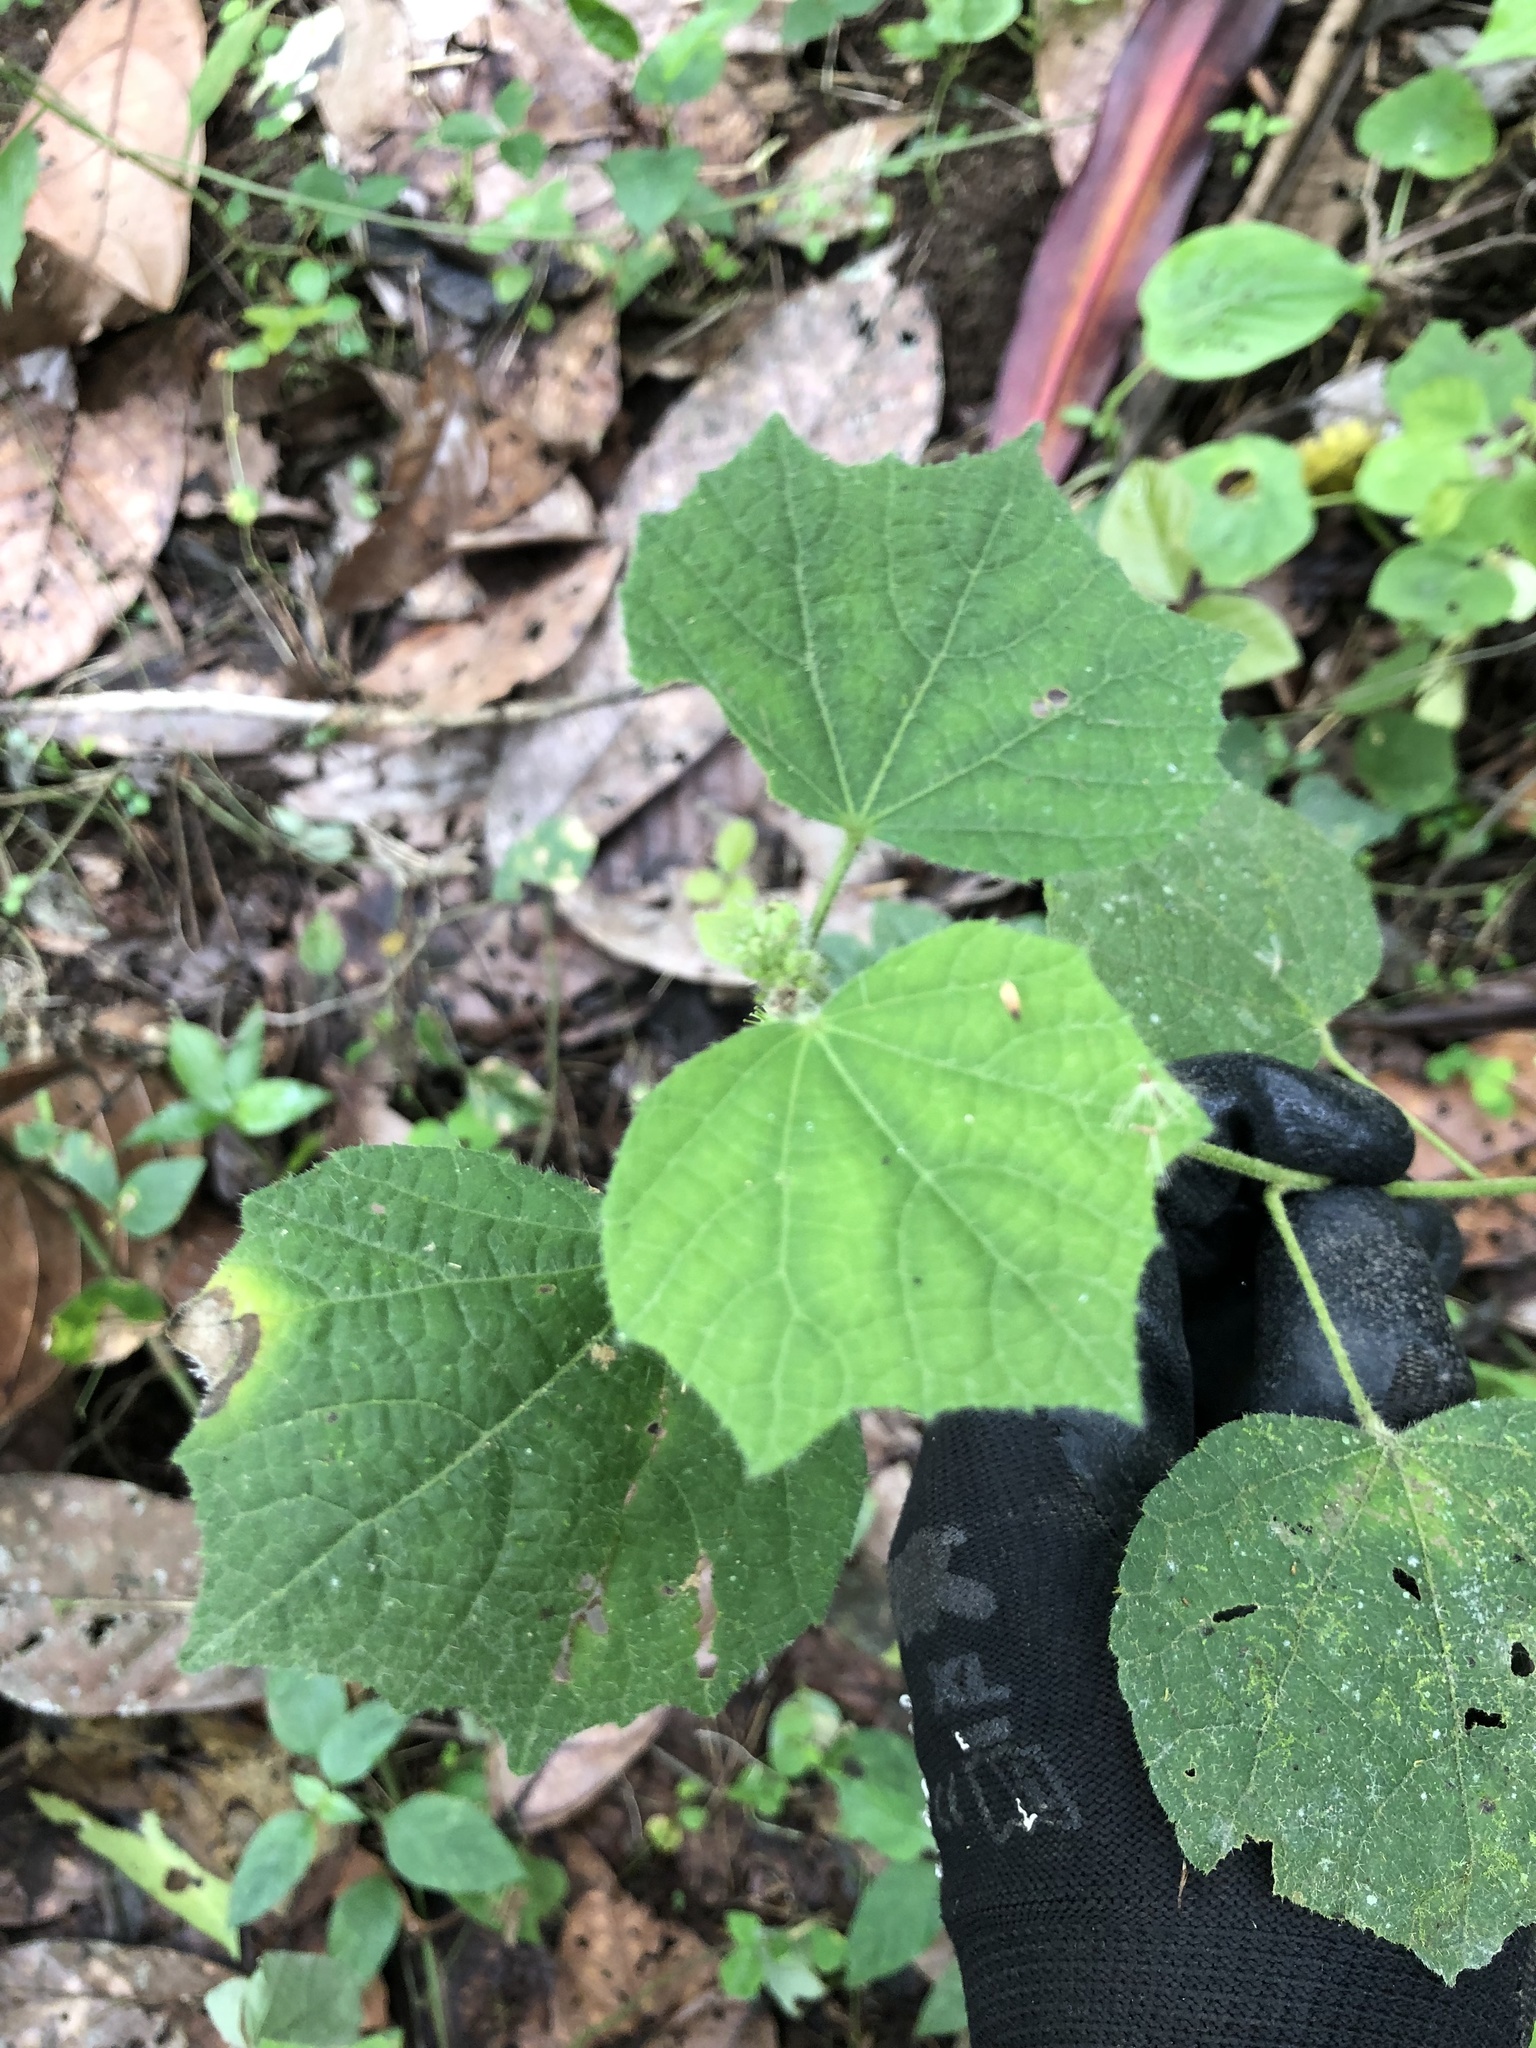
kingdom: Plantae
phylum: Tracheophyta
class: Magnoliopsida
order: Malvales
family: Malvaceae
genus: Urena
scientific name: Urena lobata
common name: Caesarweed
